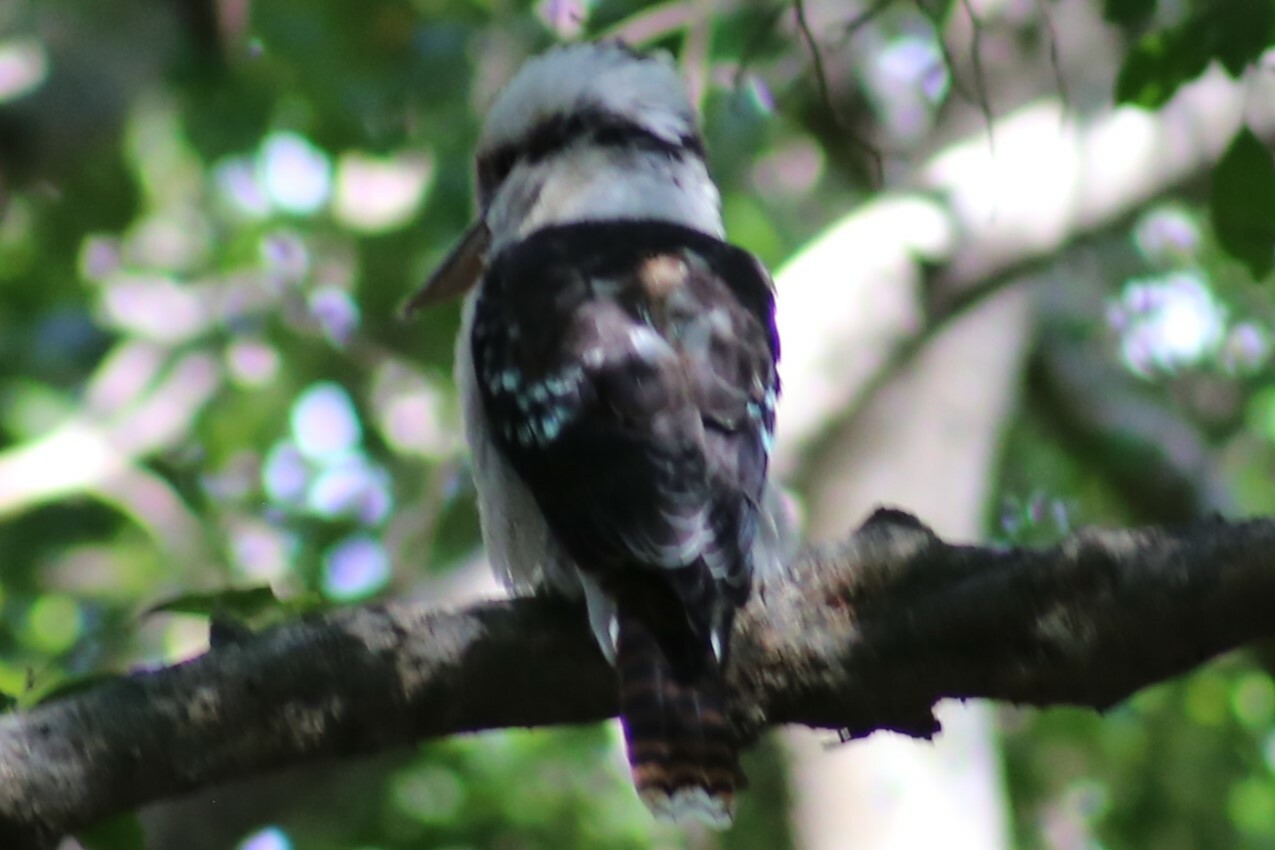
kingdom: Animalia
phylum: Chordata
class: Aves
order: Coraciiformes
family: Alcedinidae
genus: Dacelo
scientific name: Dacelo novaeguineae
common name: Laughing kookaburra
